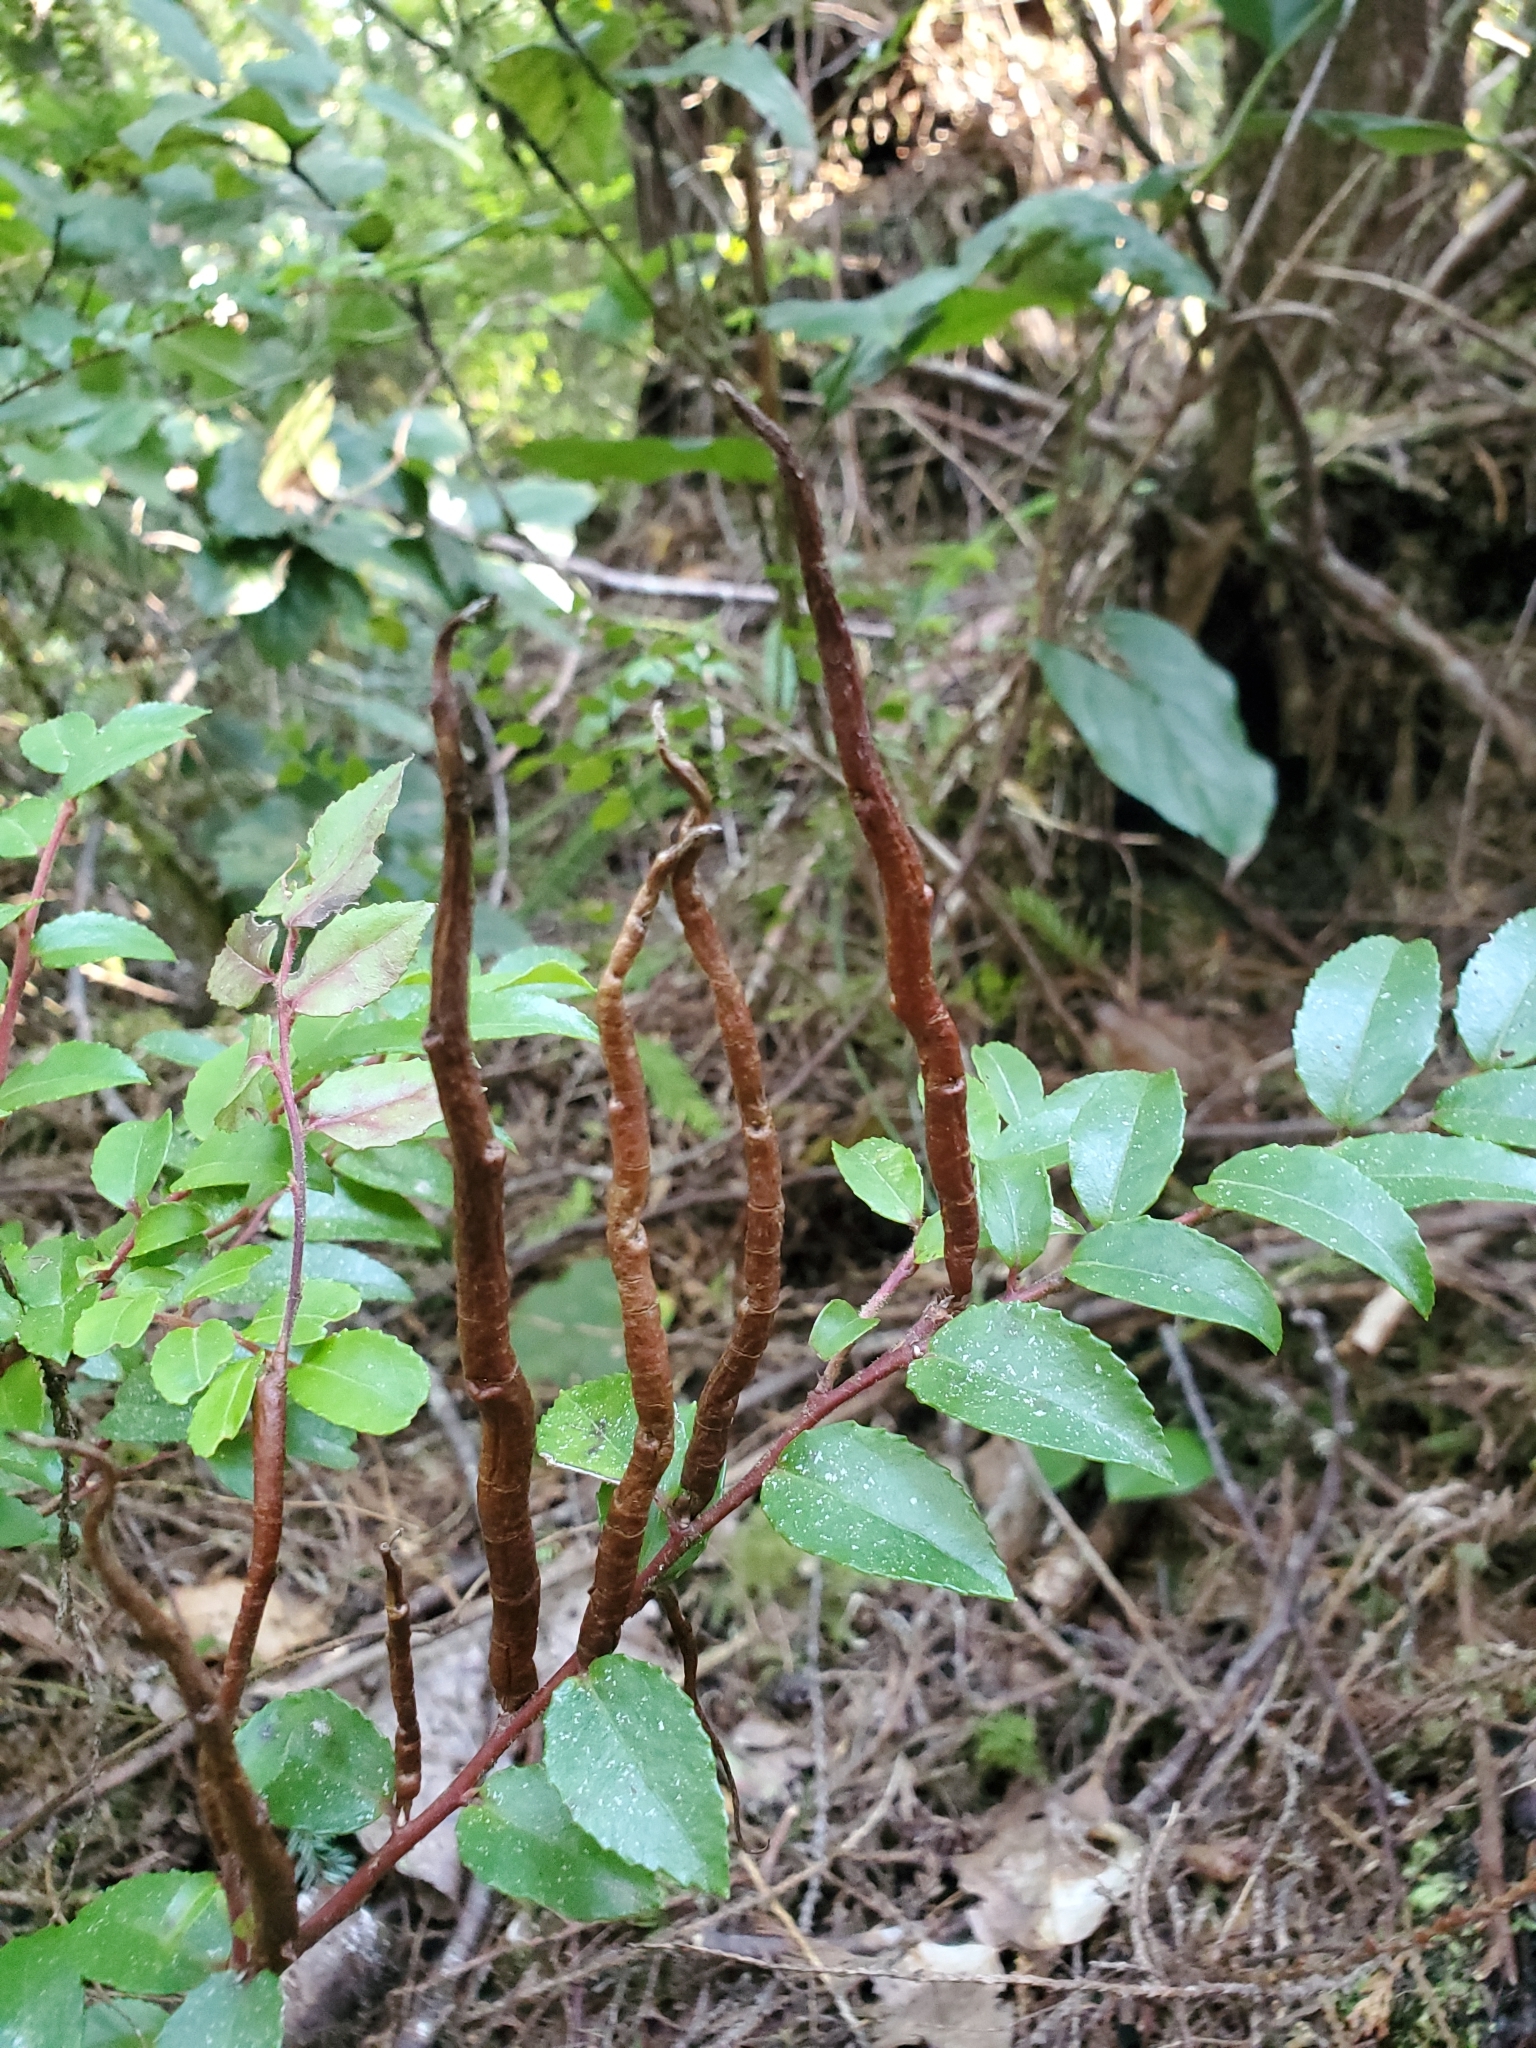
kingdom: Plantae
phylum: Tracheophyta
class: Magnoliopsida
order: Ericales
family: Ericaceae
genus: Vaccinium
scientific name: Vaccinium ovatum
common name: California-huckleberry
